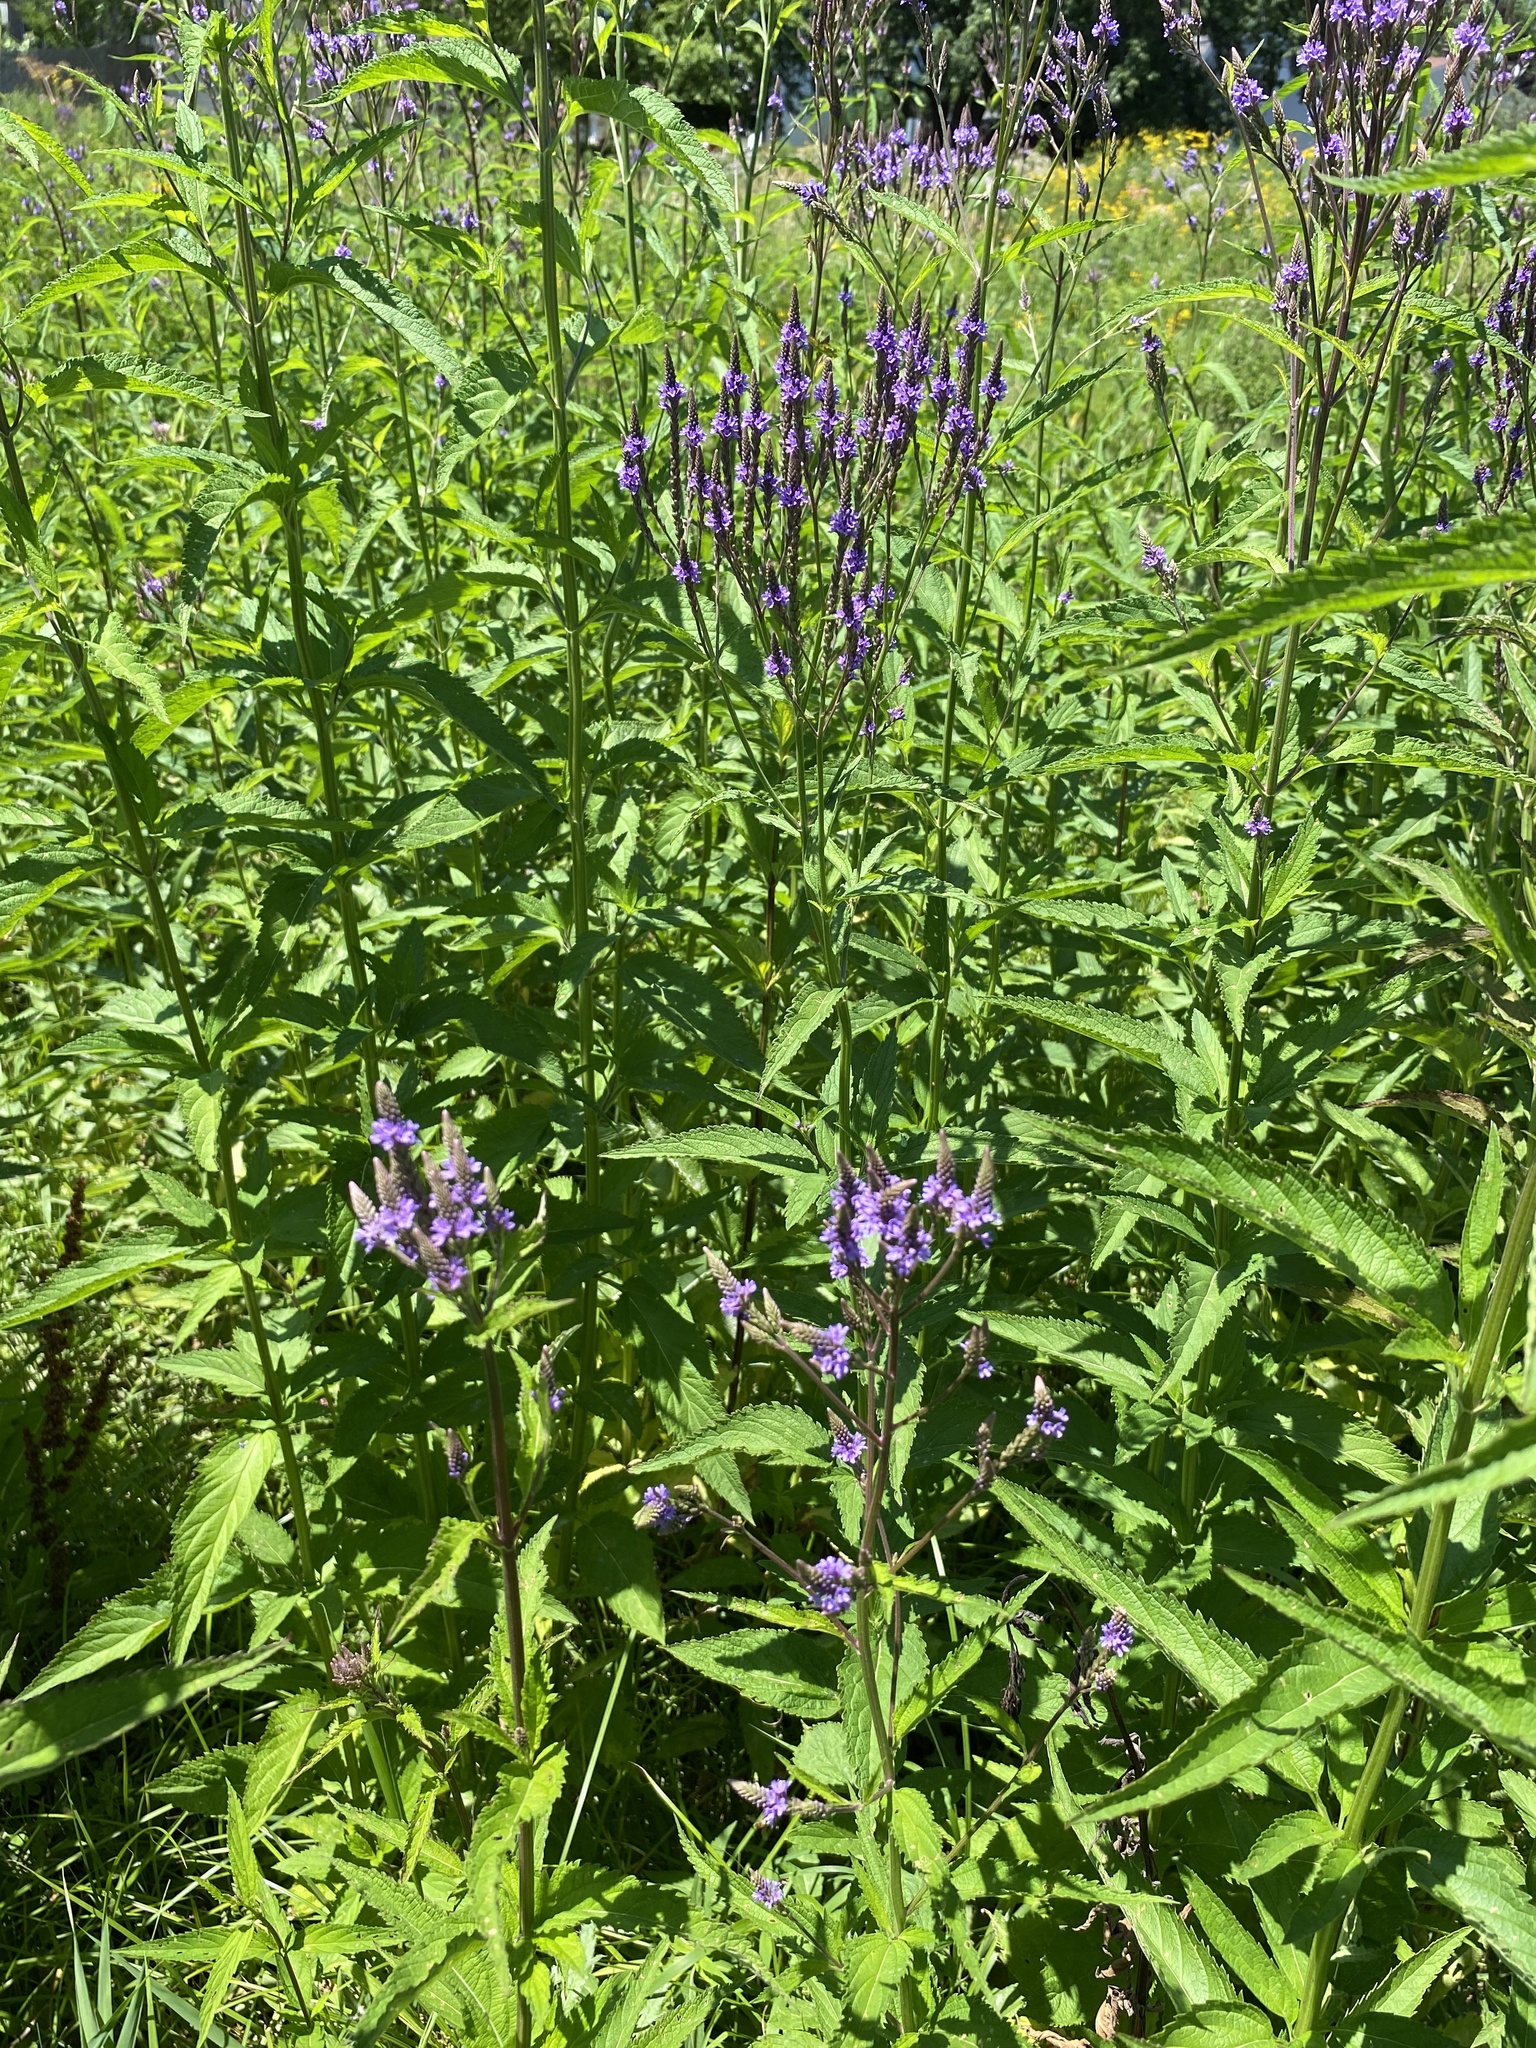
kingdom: Plantae
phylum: Tracheophyta
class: Magnoliopsida
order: Lamiales
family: Verbenaceae
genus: Verbena
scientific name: Verbena hastata
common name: American blue vervain
